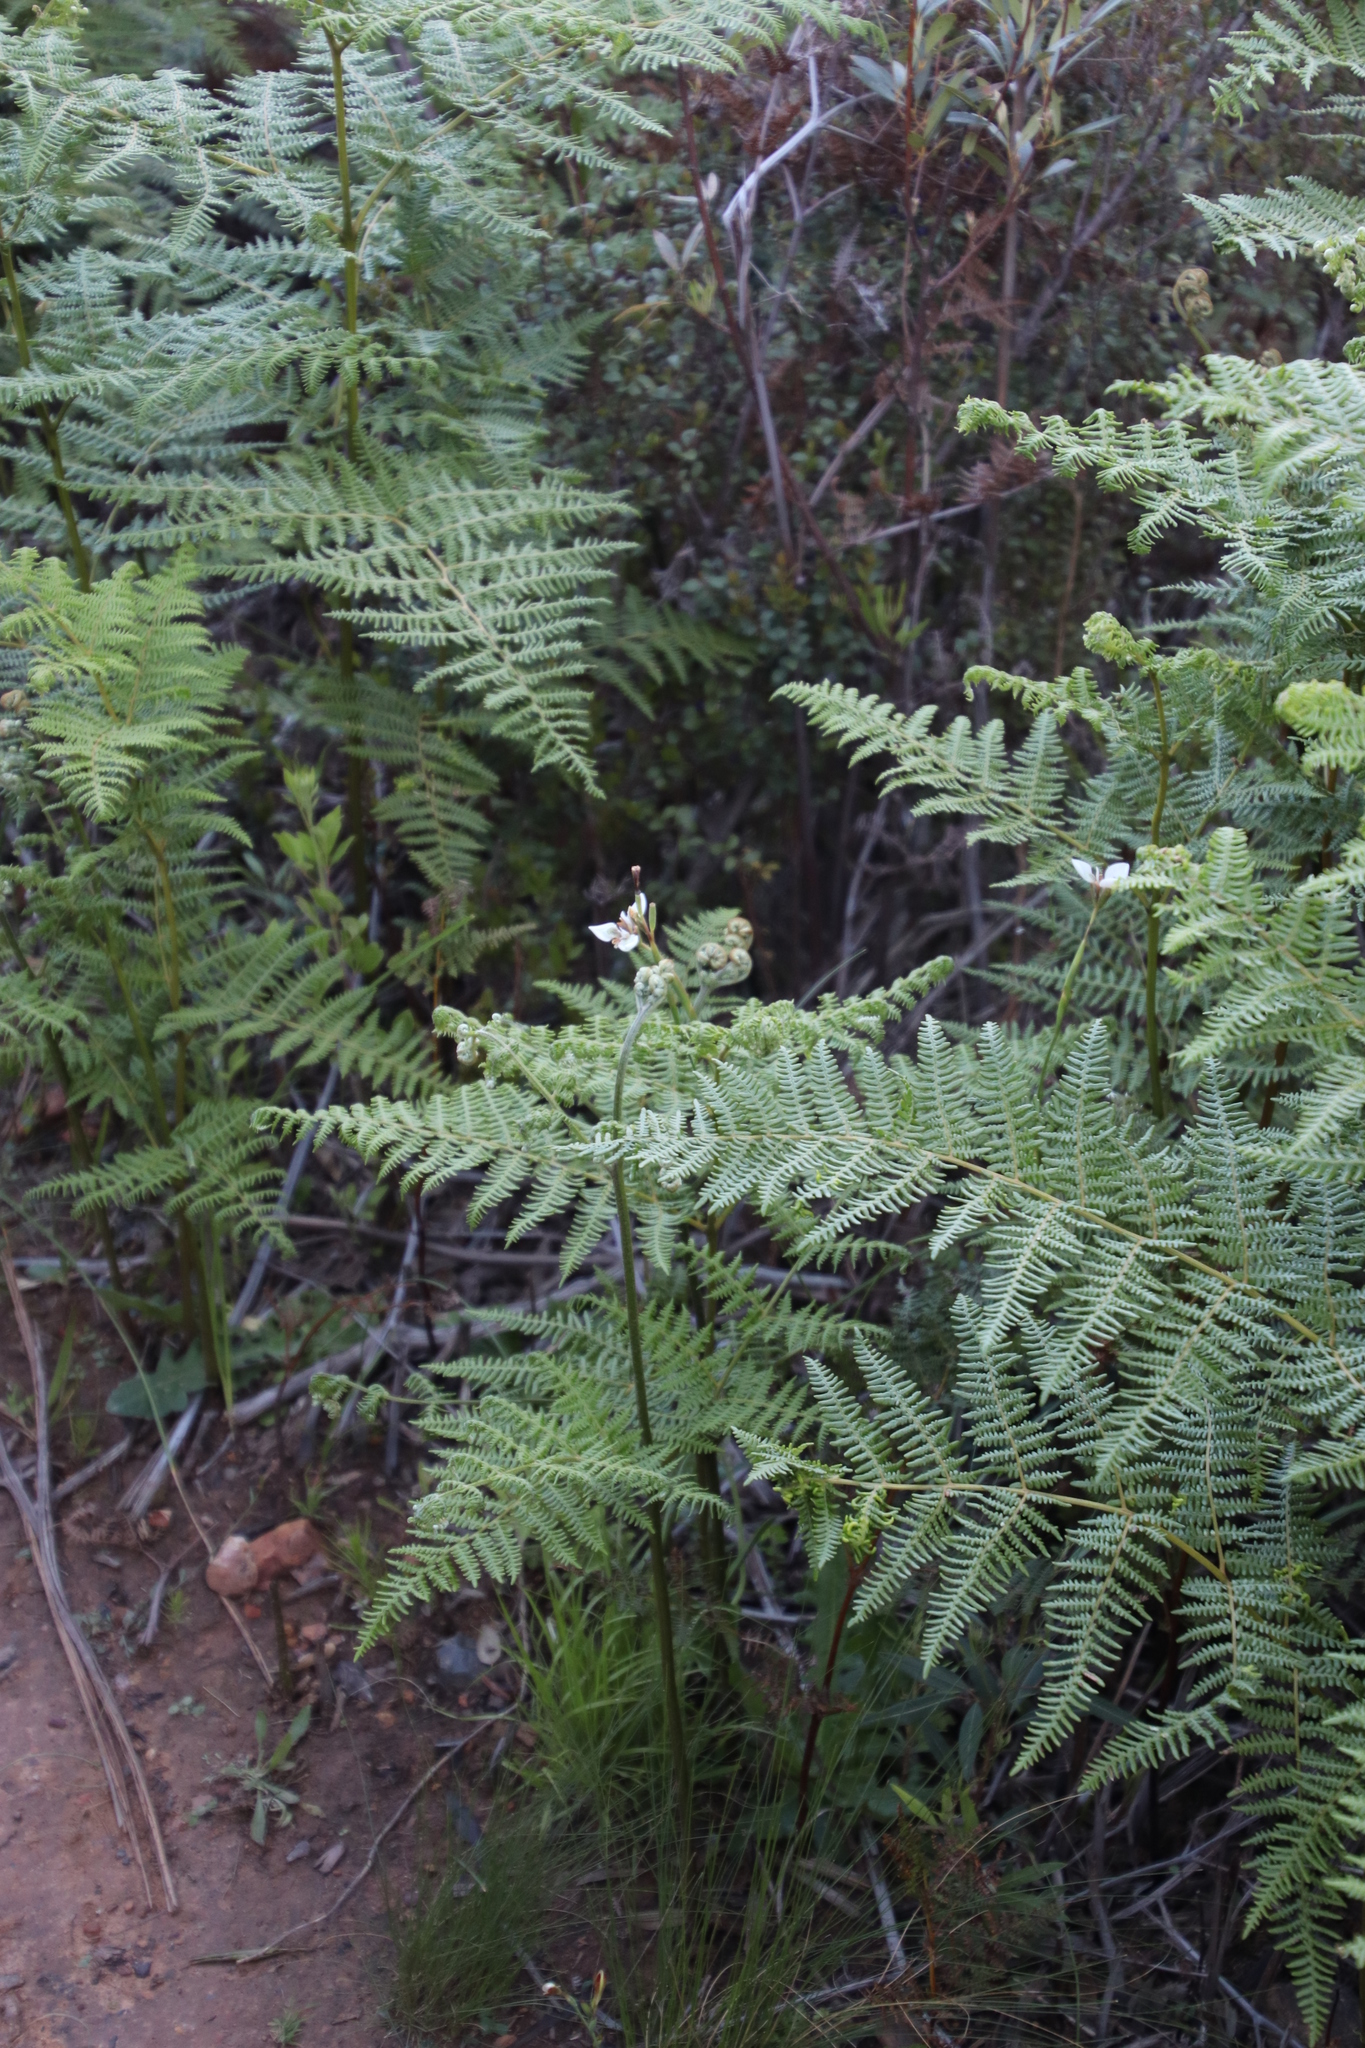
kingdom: Plantae
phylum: Tracheophyta
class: Polypodiopsida
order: Polypodiales
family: Dennstaedtiaceae
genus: Pteridium
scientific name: Pteridium aquilinum
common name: Bracken
